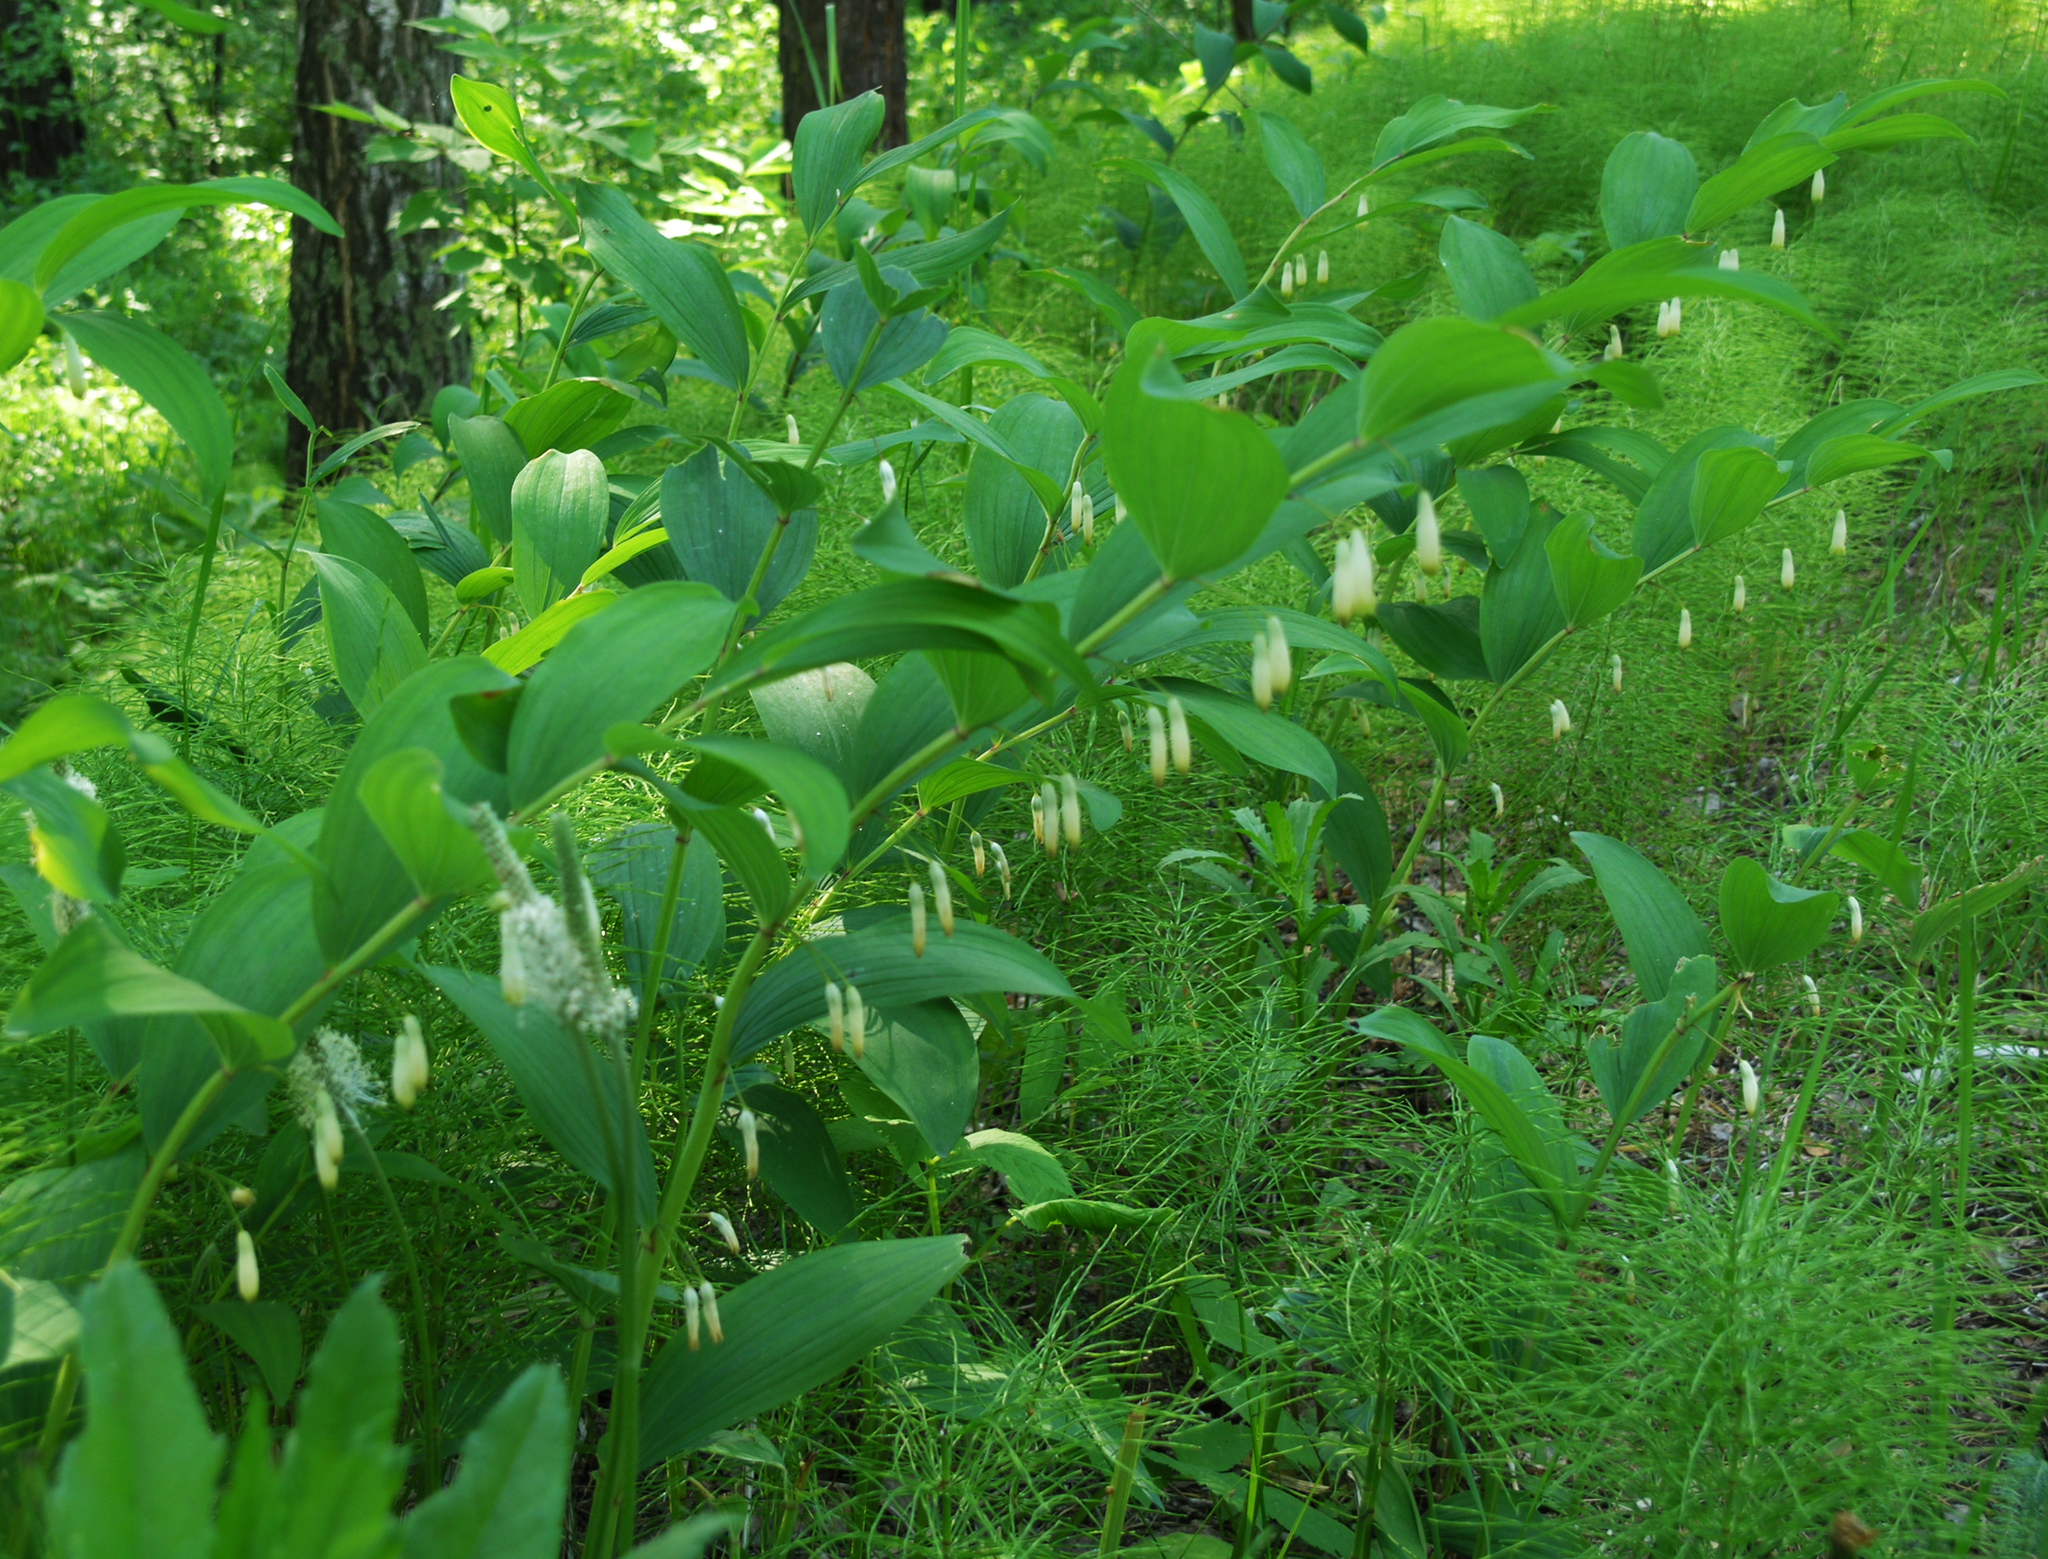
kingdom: Plantae
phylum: Tracheophyta
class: Liliopsida
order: Asparagales
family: Asparagaceae
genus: Polygonatum
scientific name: Polygonatum odoratum
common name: Angular solomon's-seal
